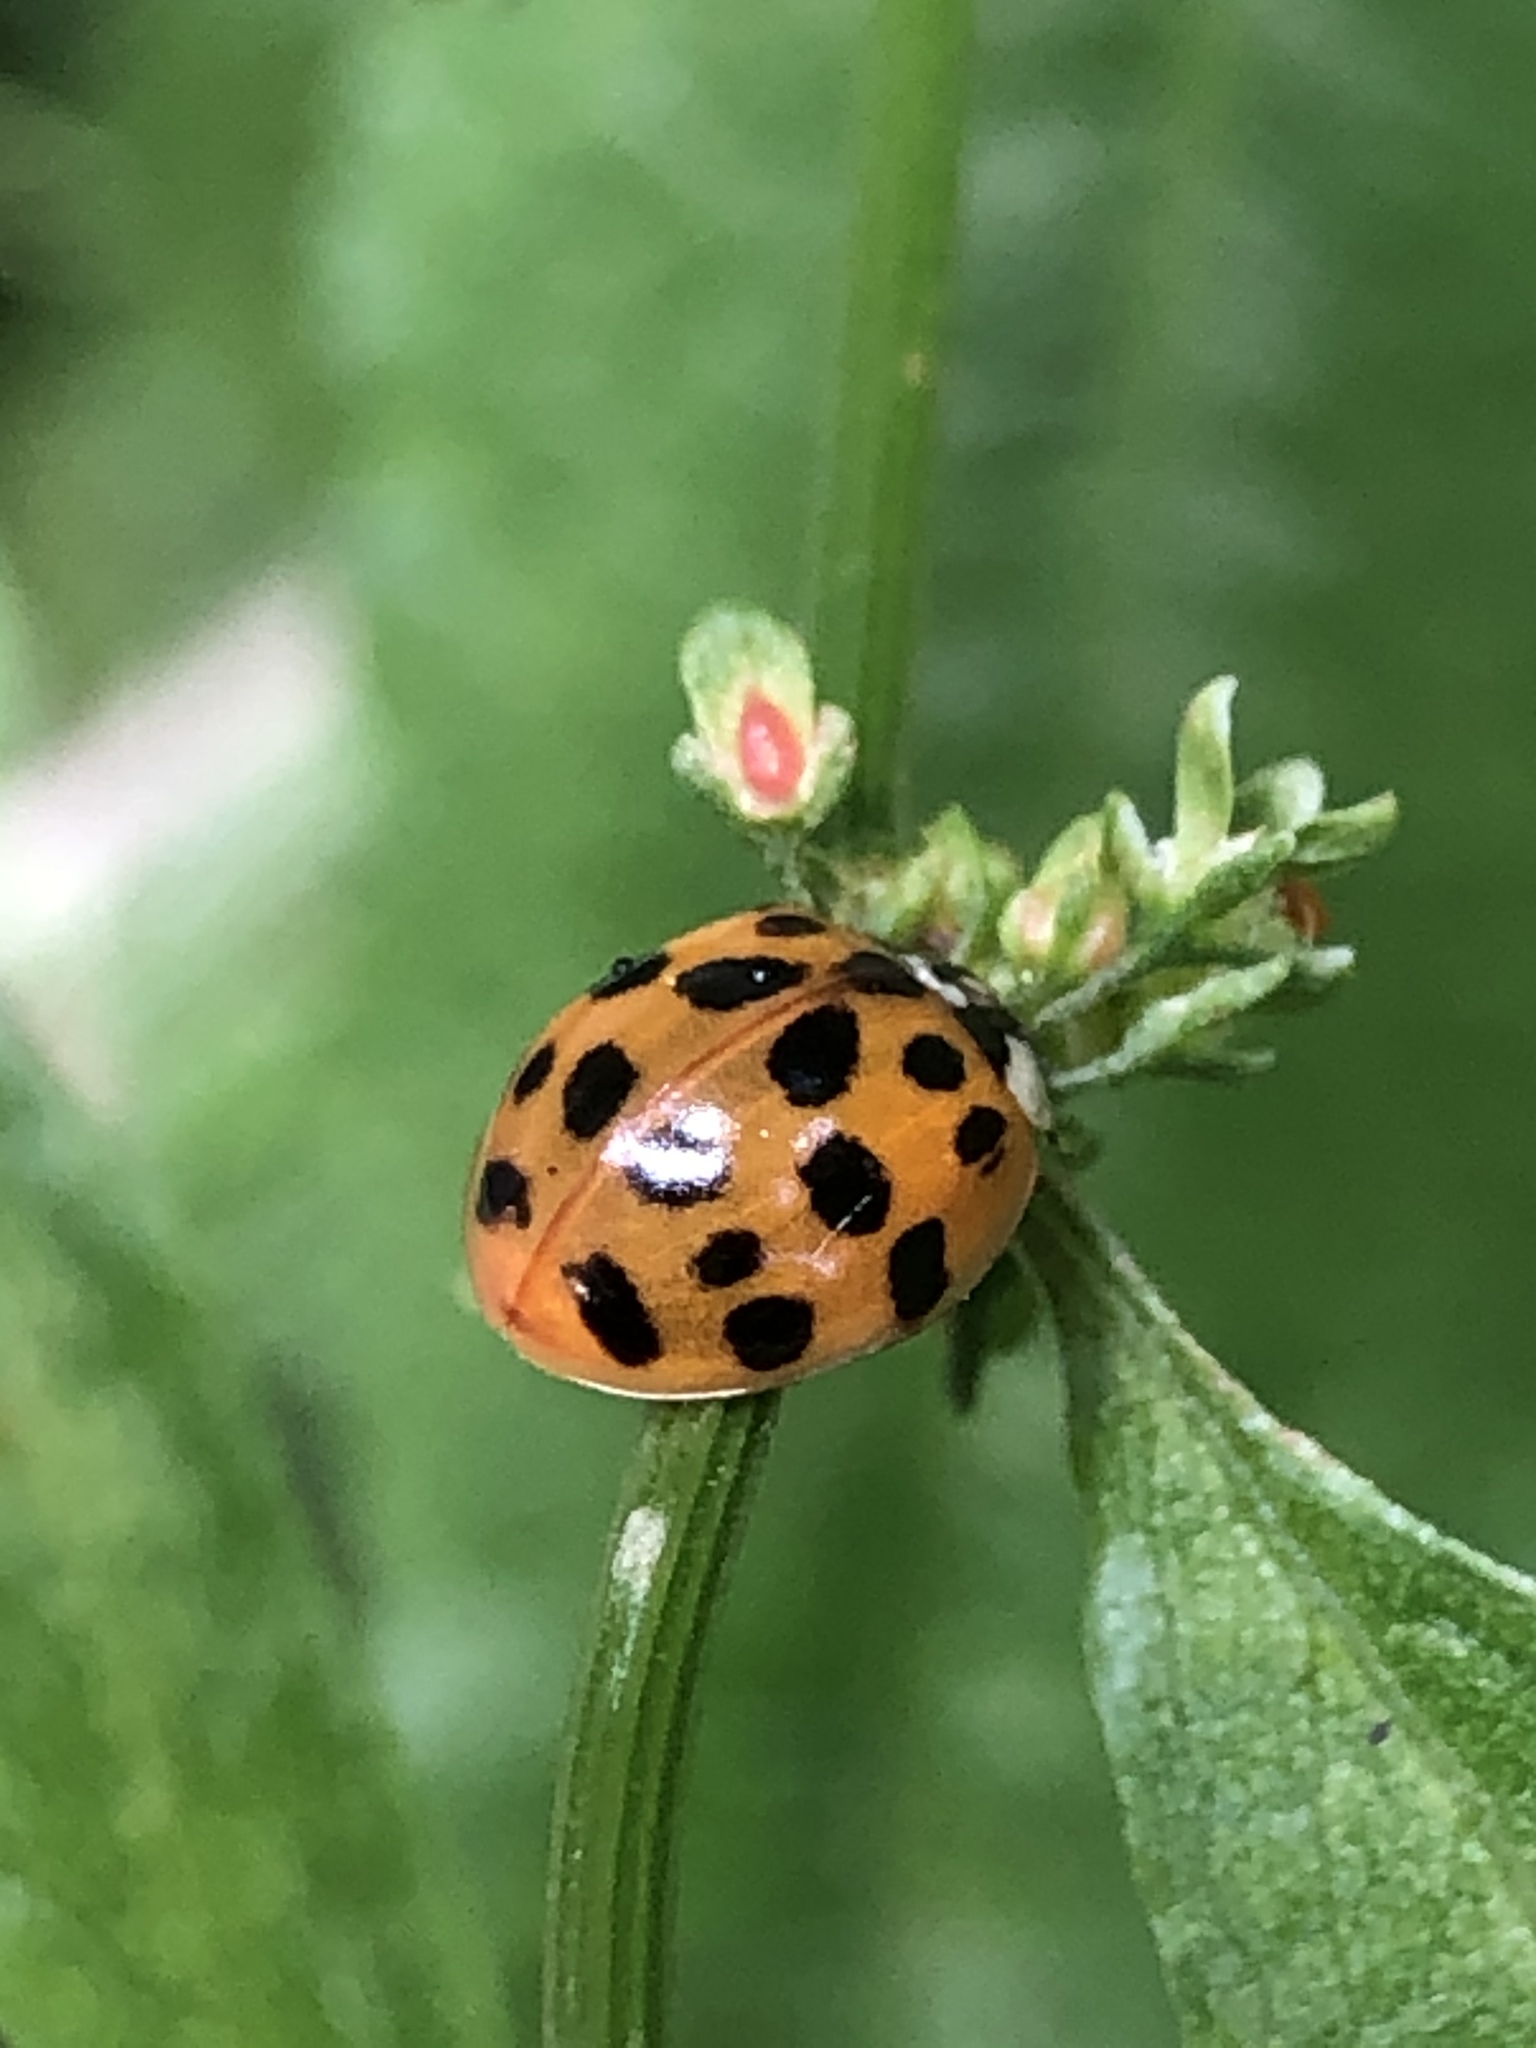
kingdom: Animalia
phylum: Arthropoda
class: Insecta
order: Coleoptera
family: Coccinellidae
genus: Harmonia
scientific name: Harmonia axyridis
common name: Harlequin ladybird
